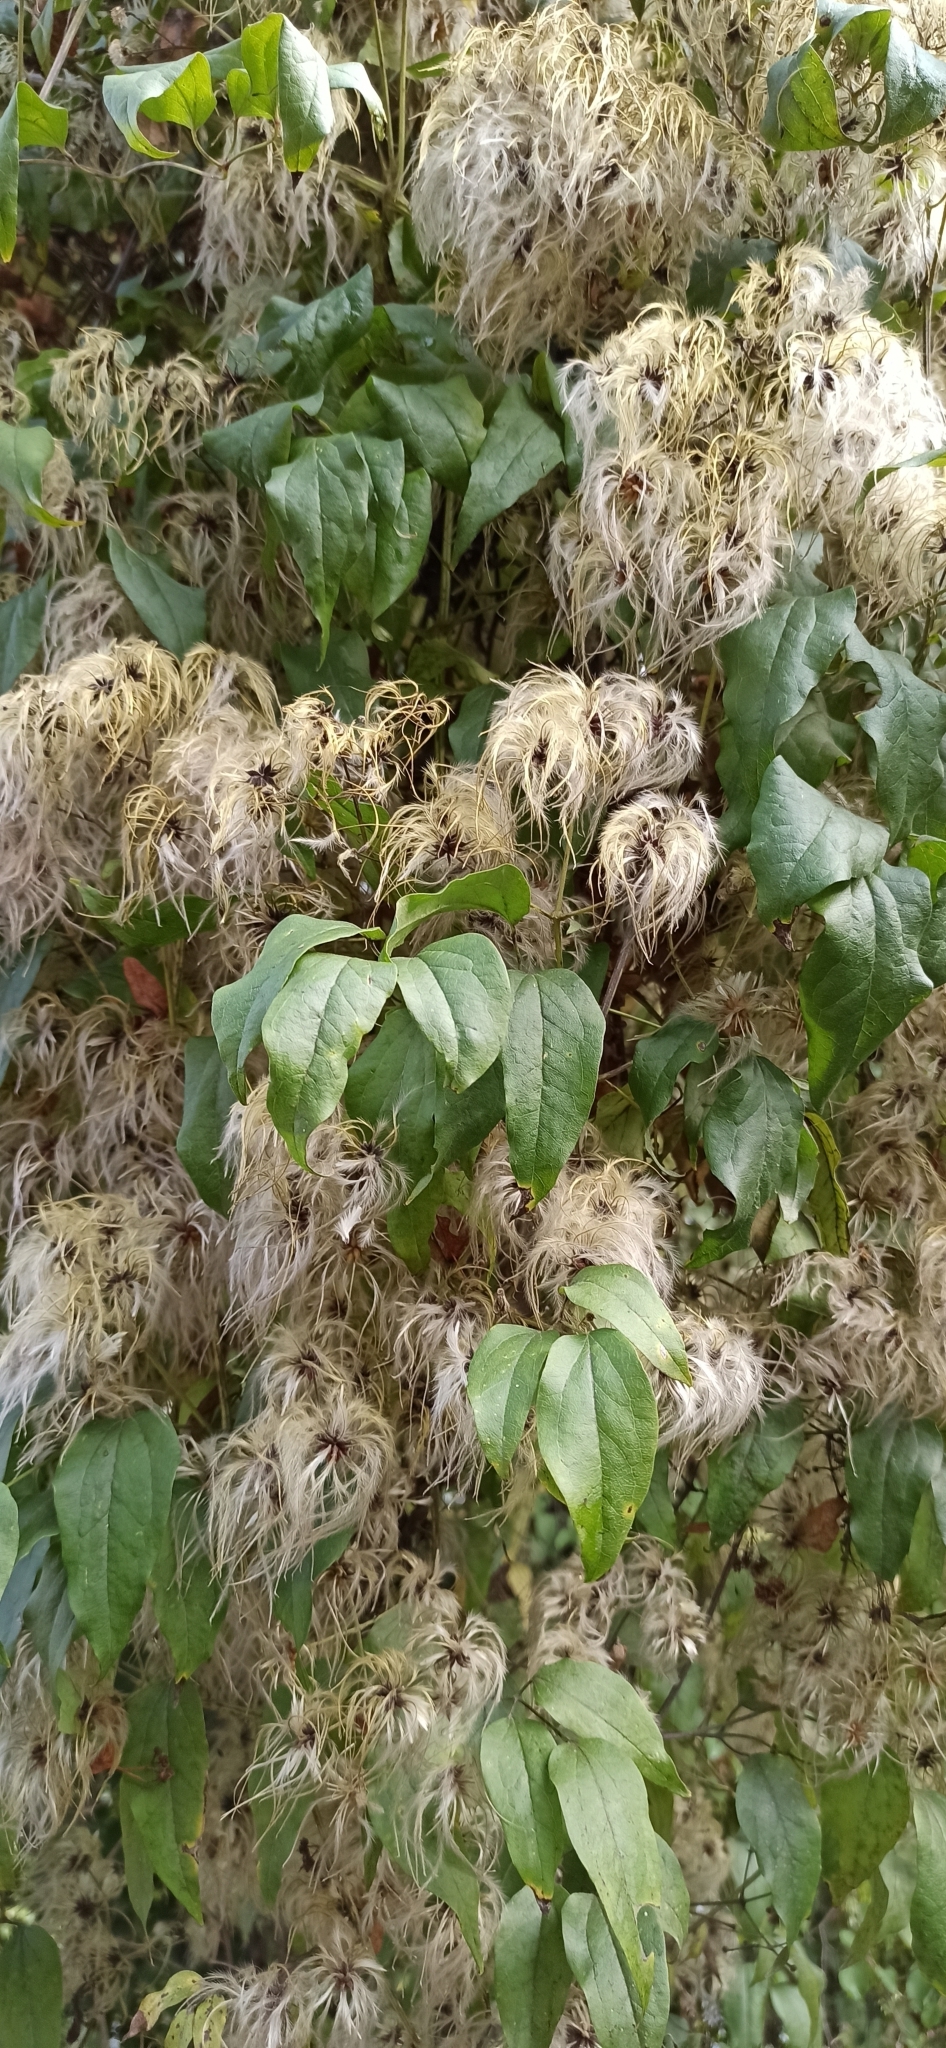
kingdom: Plantae
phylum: Tracheophyta
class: Magnoliopsida
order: Ranunculales
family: Ranunculaceae
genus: Clematis
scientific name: Clematis vitalba
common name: Evergreen clematis
